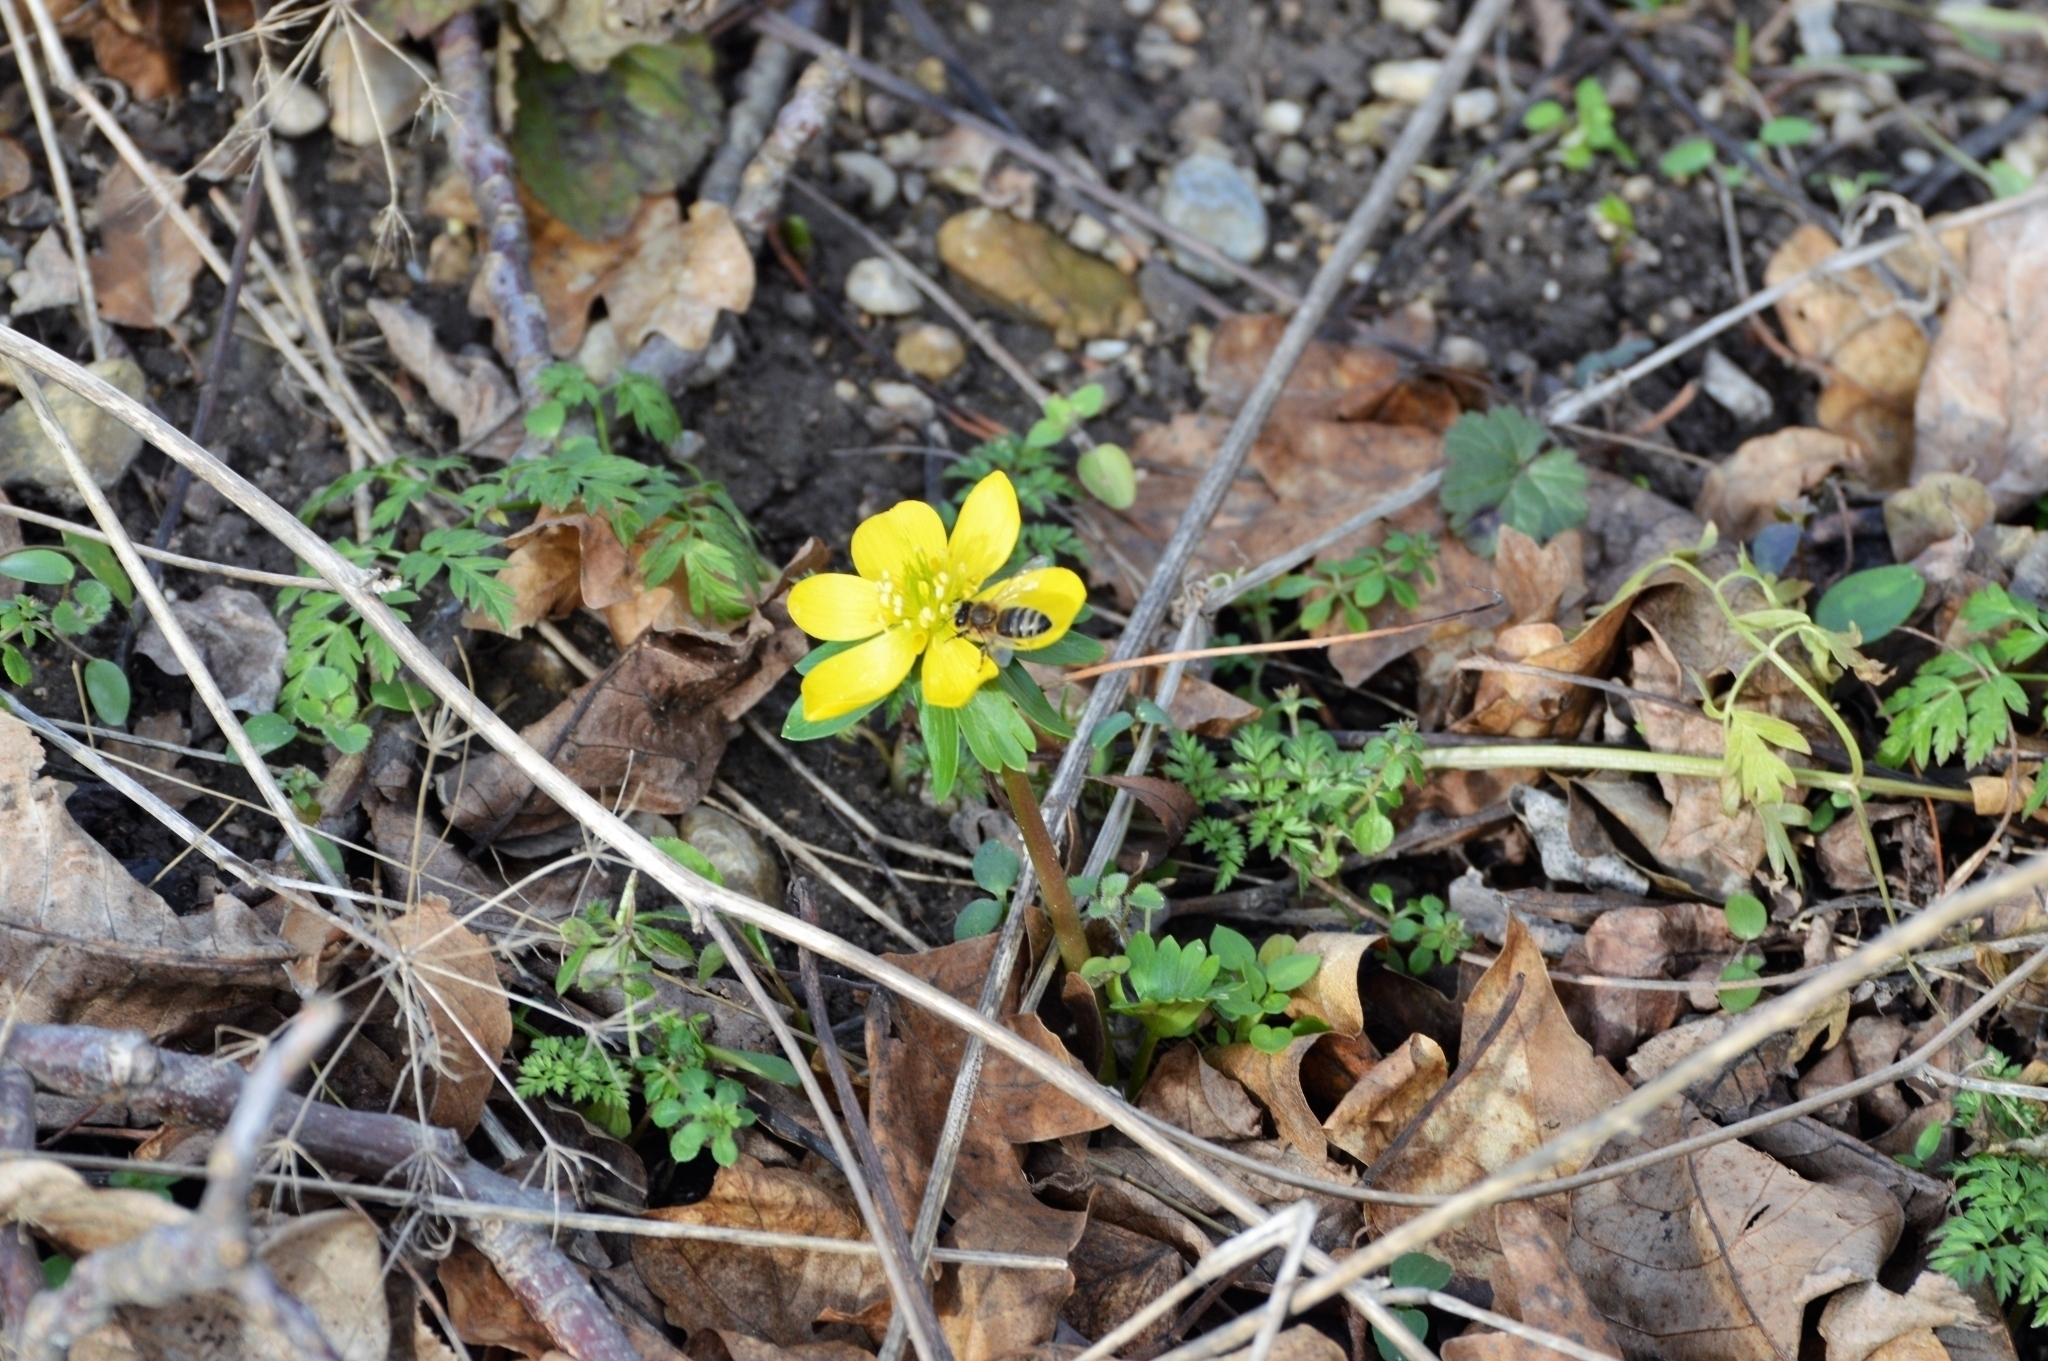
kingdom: Plantae
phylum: Tracheophyta
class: Magnoliopsida
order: Ranunculales
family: Ranunculaceae
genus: Eranthis
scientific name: Eranthis hyemalis
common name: Winter aconite
